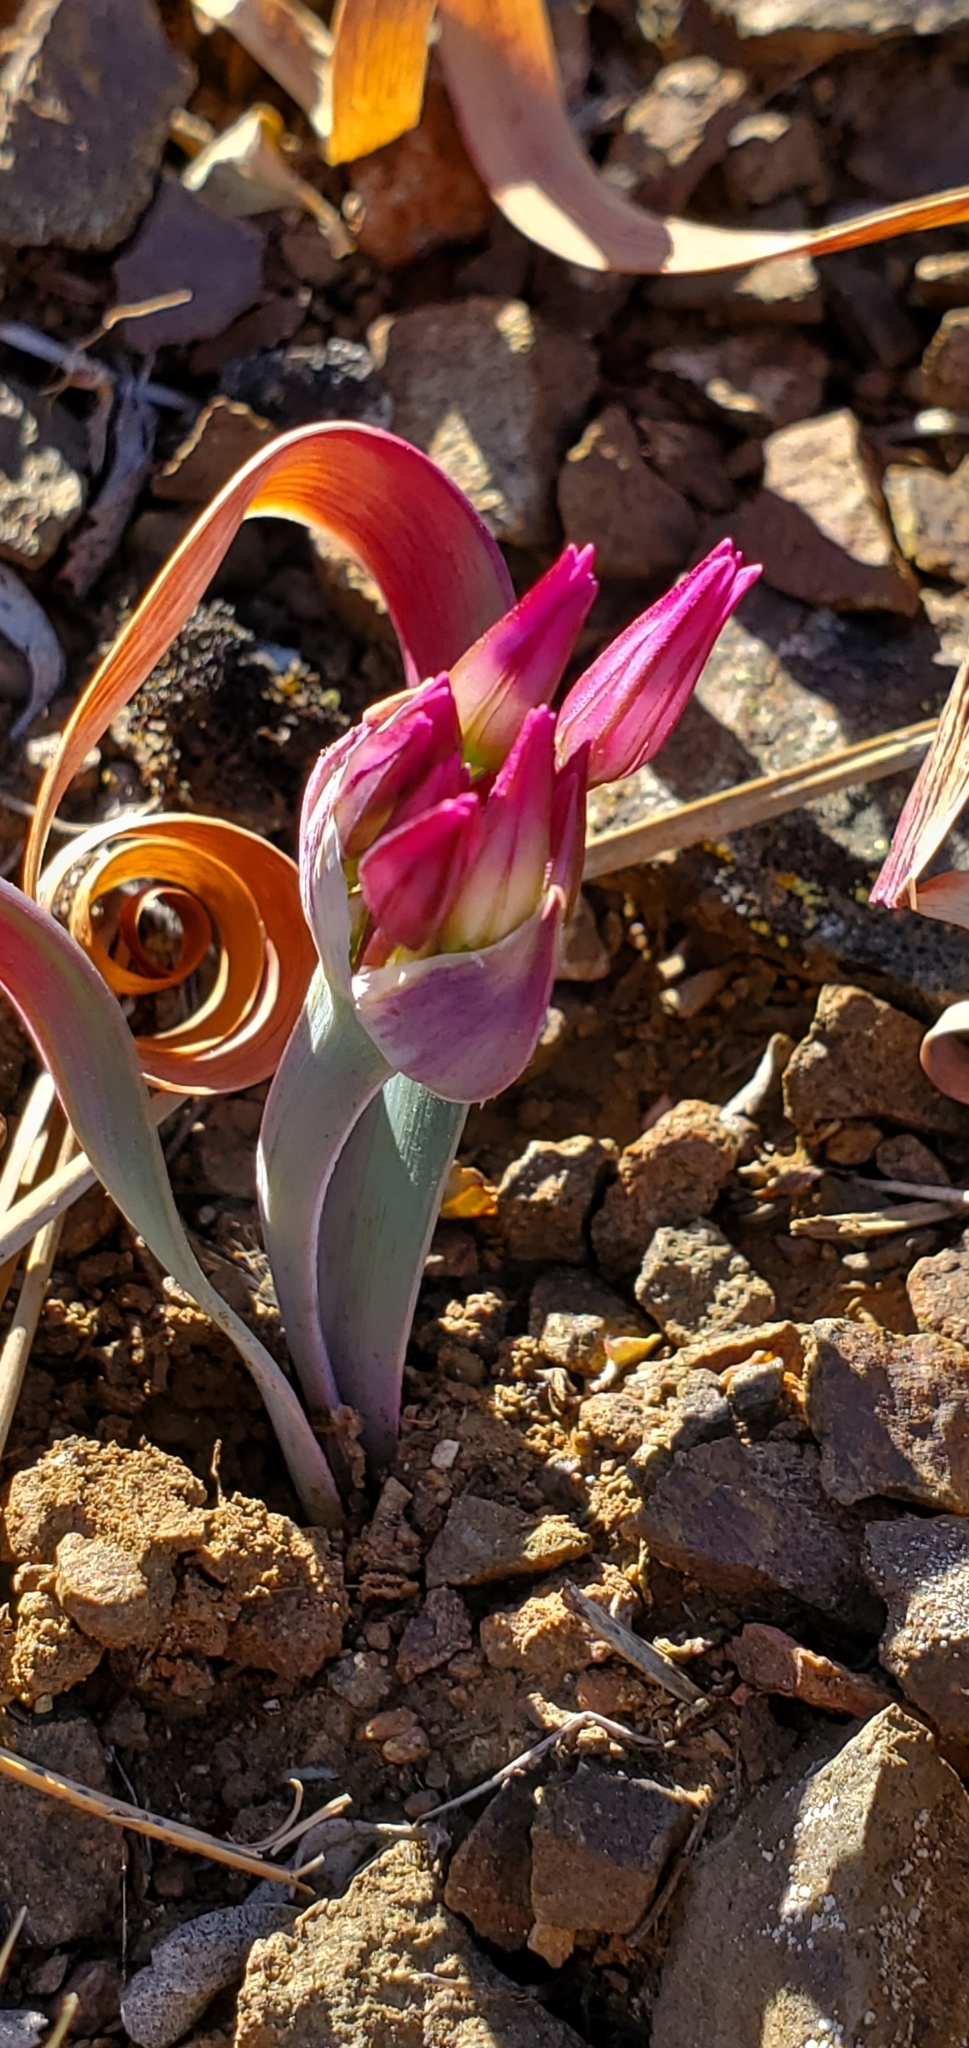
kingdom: Plantae
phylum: Tracheophyta
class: Liliopsida
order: Asparagales
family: Amaryllidaceae
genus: Allium
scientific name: Allium falcifolium
